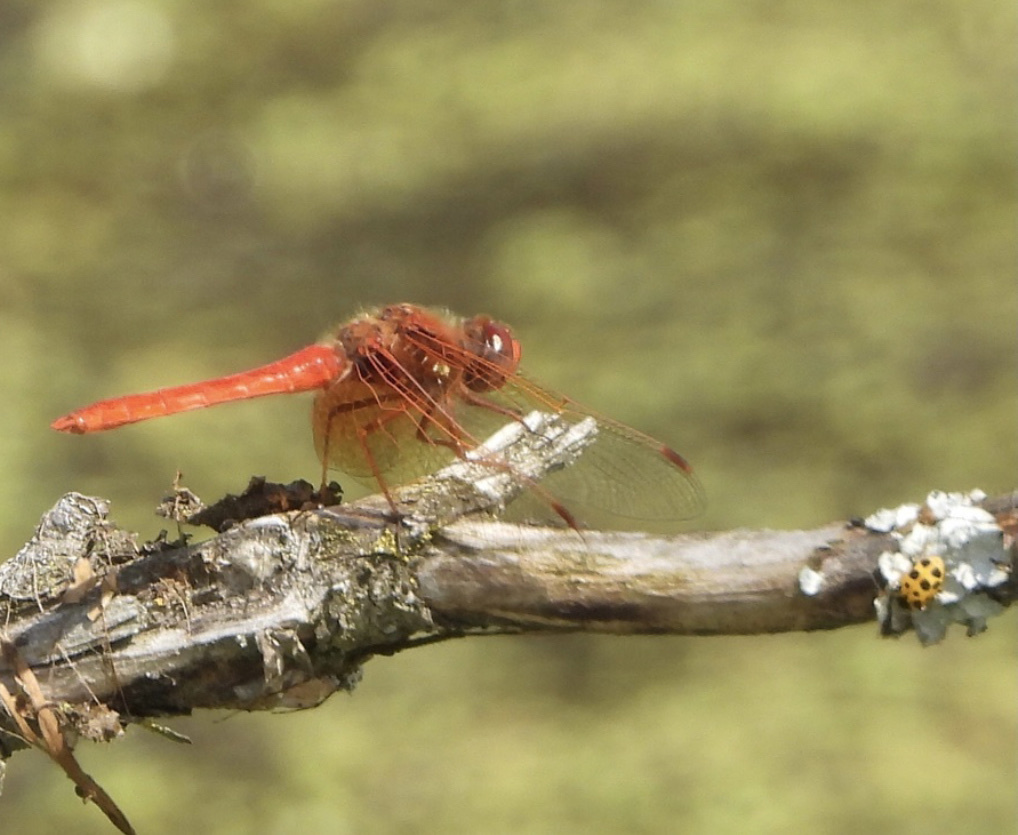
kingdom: Animalia
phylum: Arthropoda
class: Insecta
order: Coleoptera
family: Coccinellidae
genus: Hippodamia
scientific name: Hippodamia tredecimpunctata
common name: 13-spot ladybird
